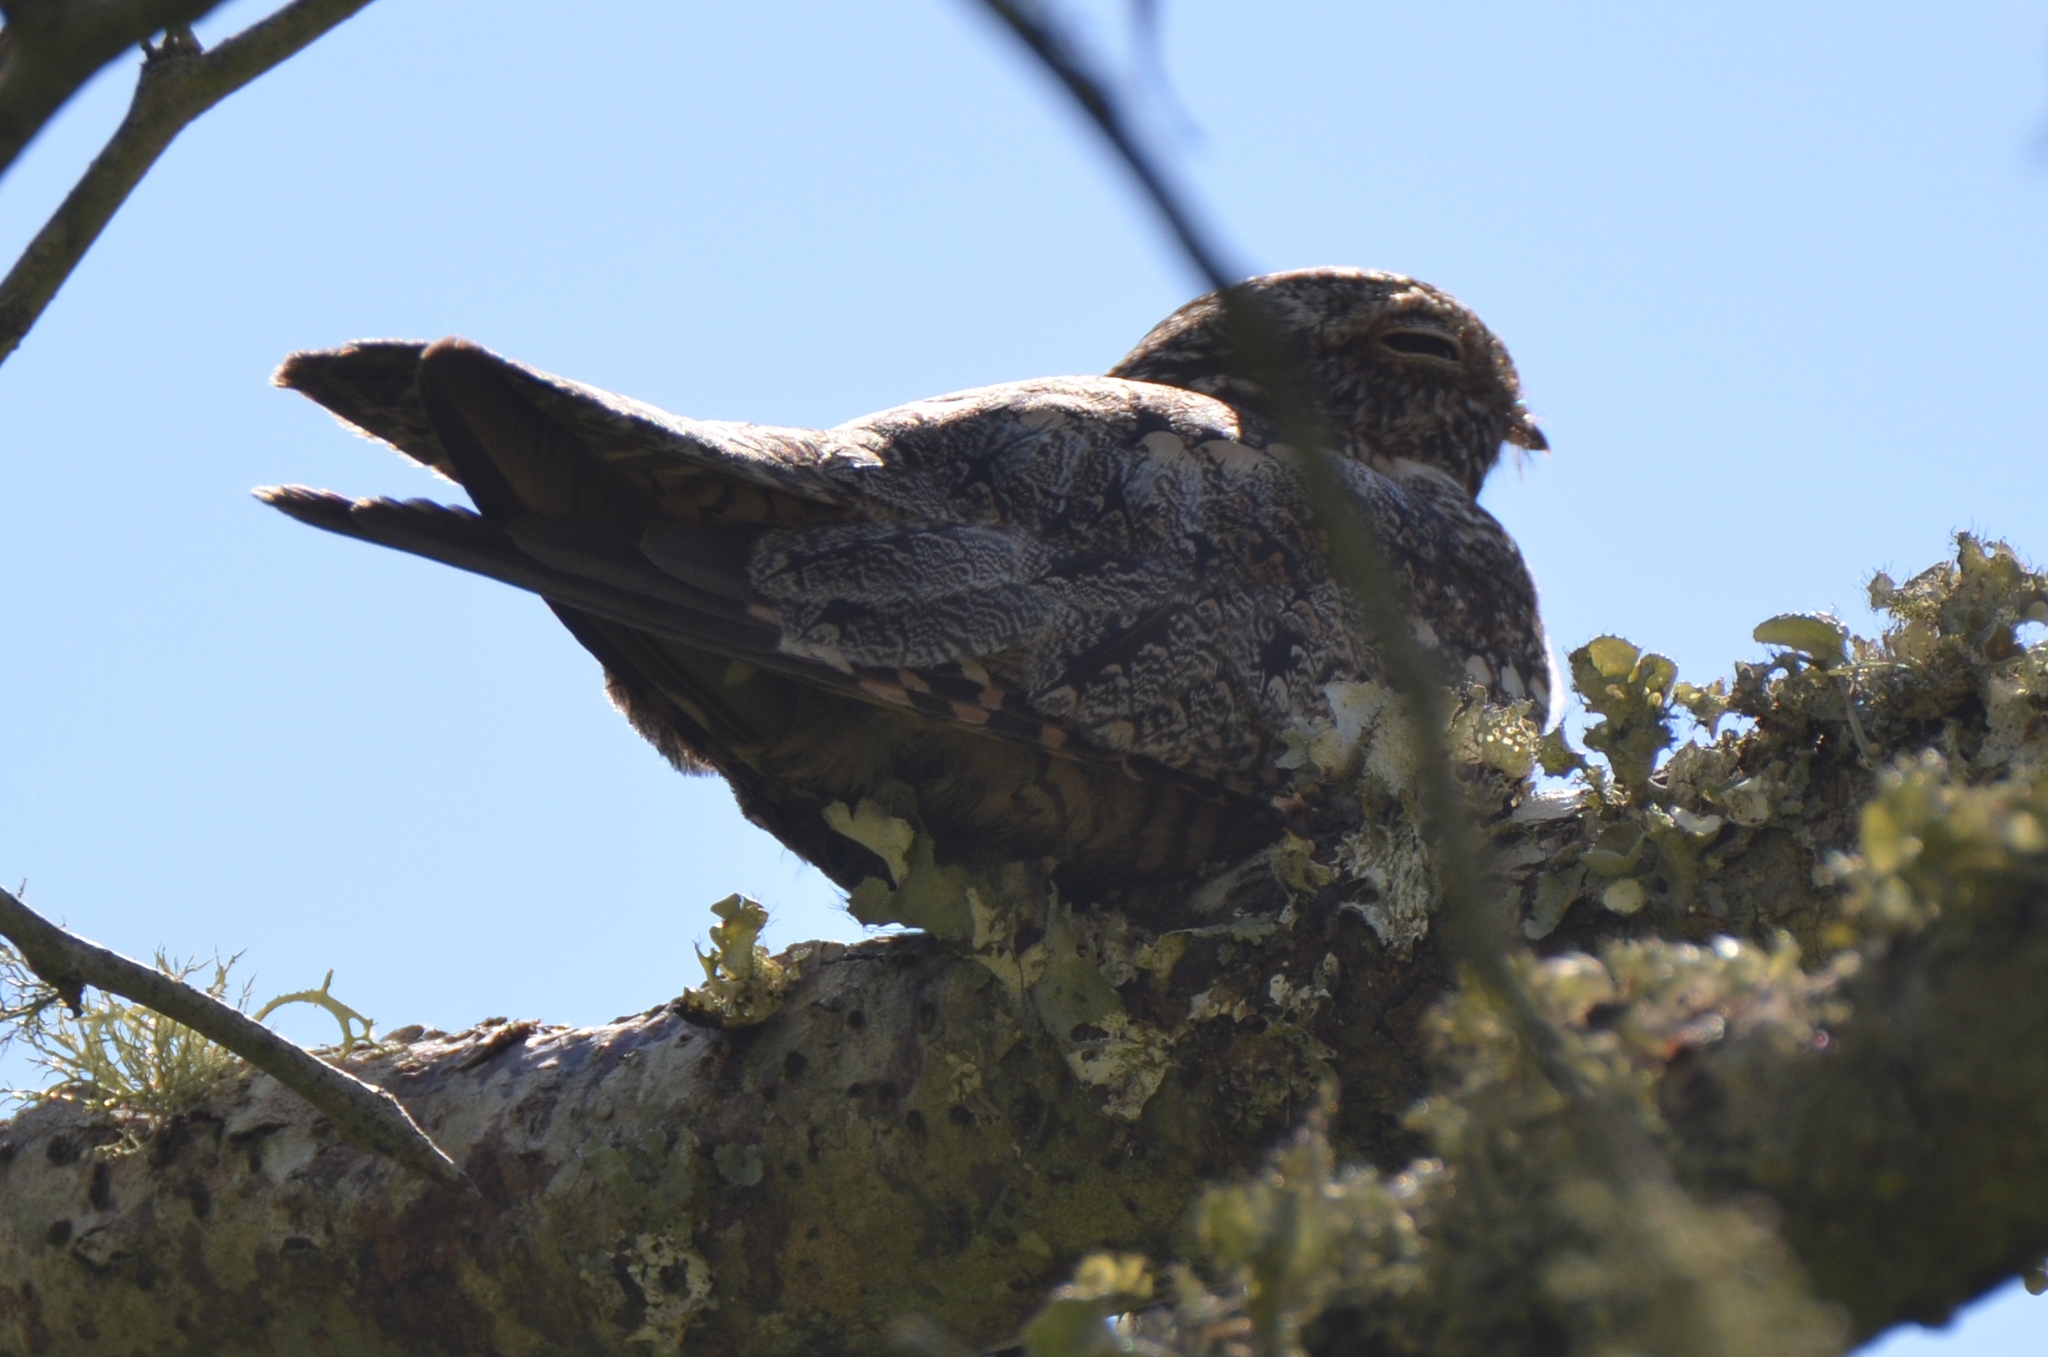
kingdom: Animalia
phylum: Chordata
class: Aves
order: Caprimulgiformes
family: Caprimulgidae
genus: Chordeiles
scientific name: Chordeiles acutipennis
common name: Lesser nighthawk
